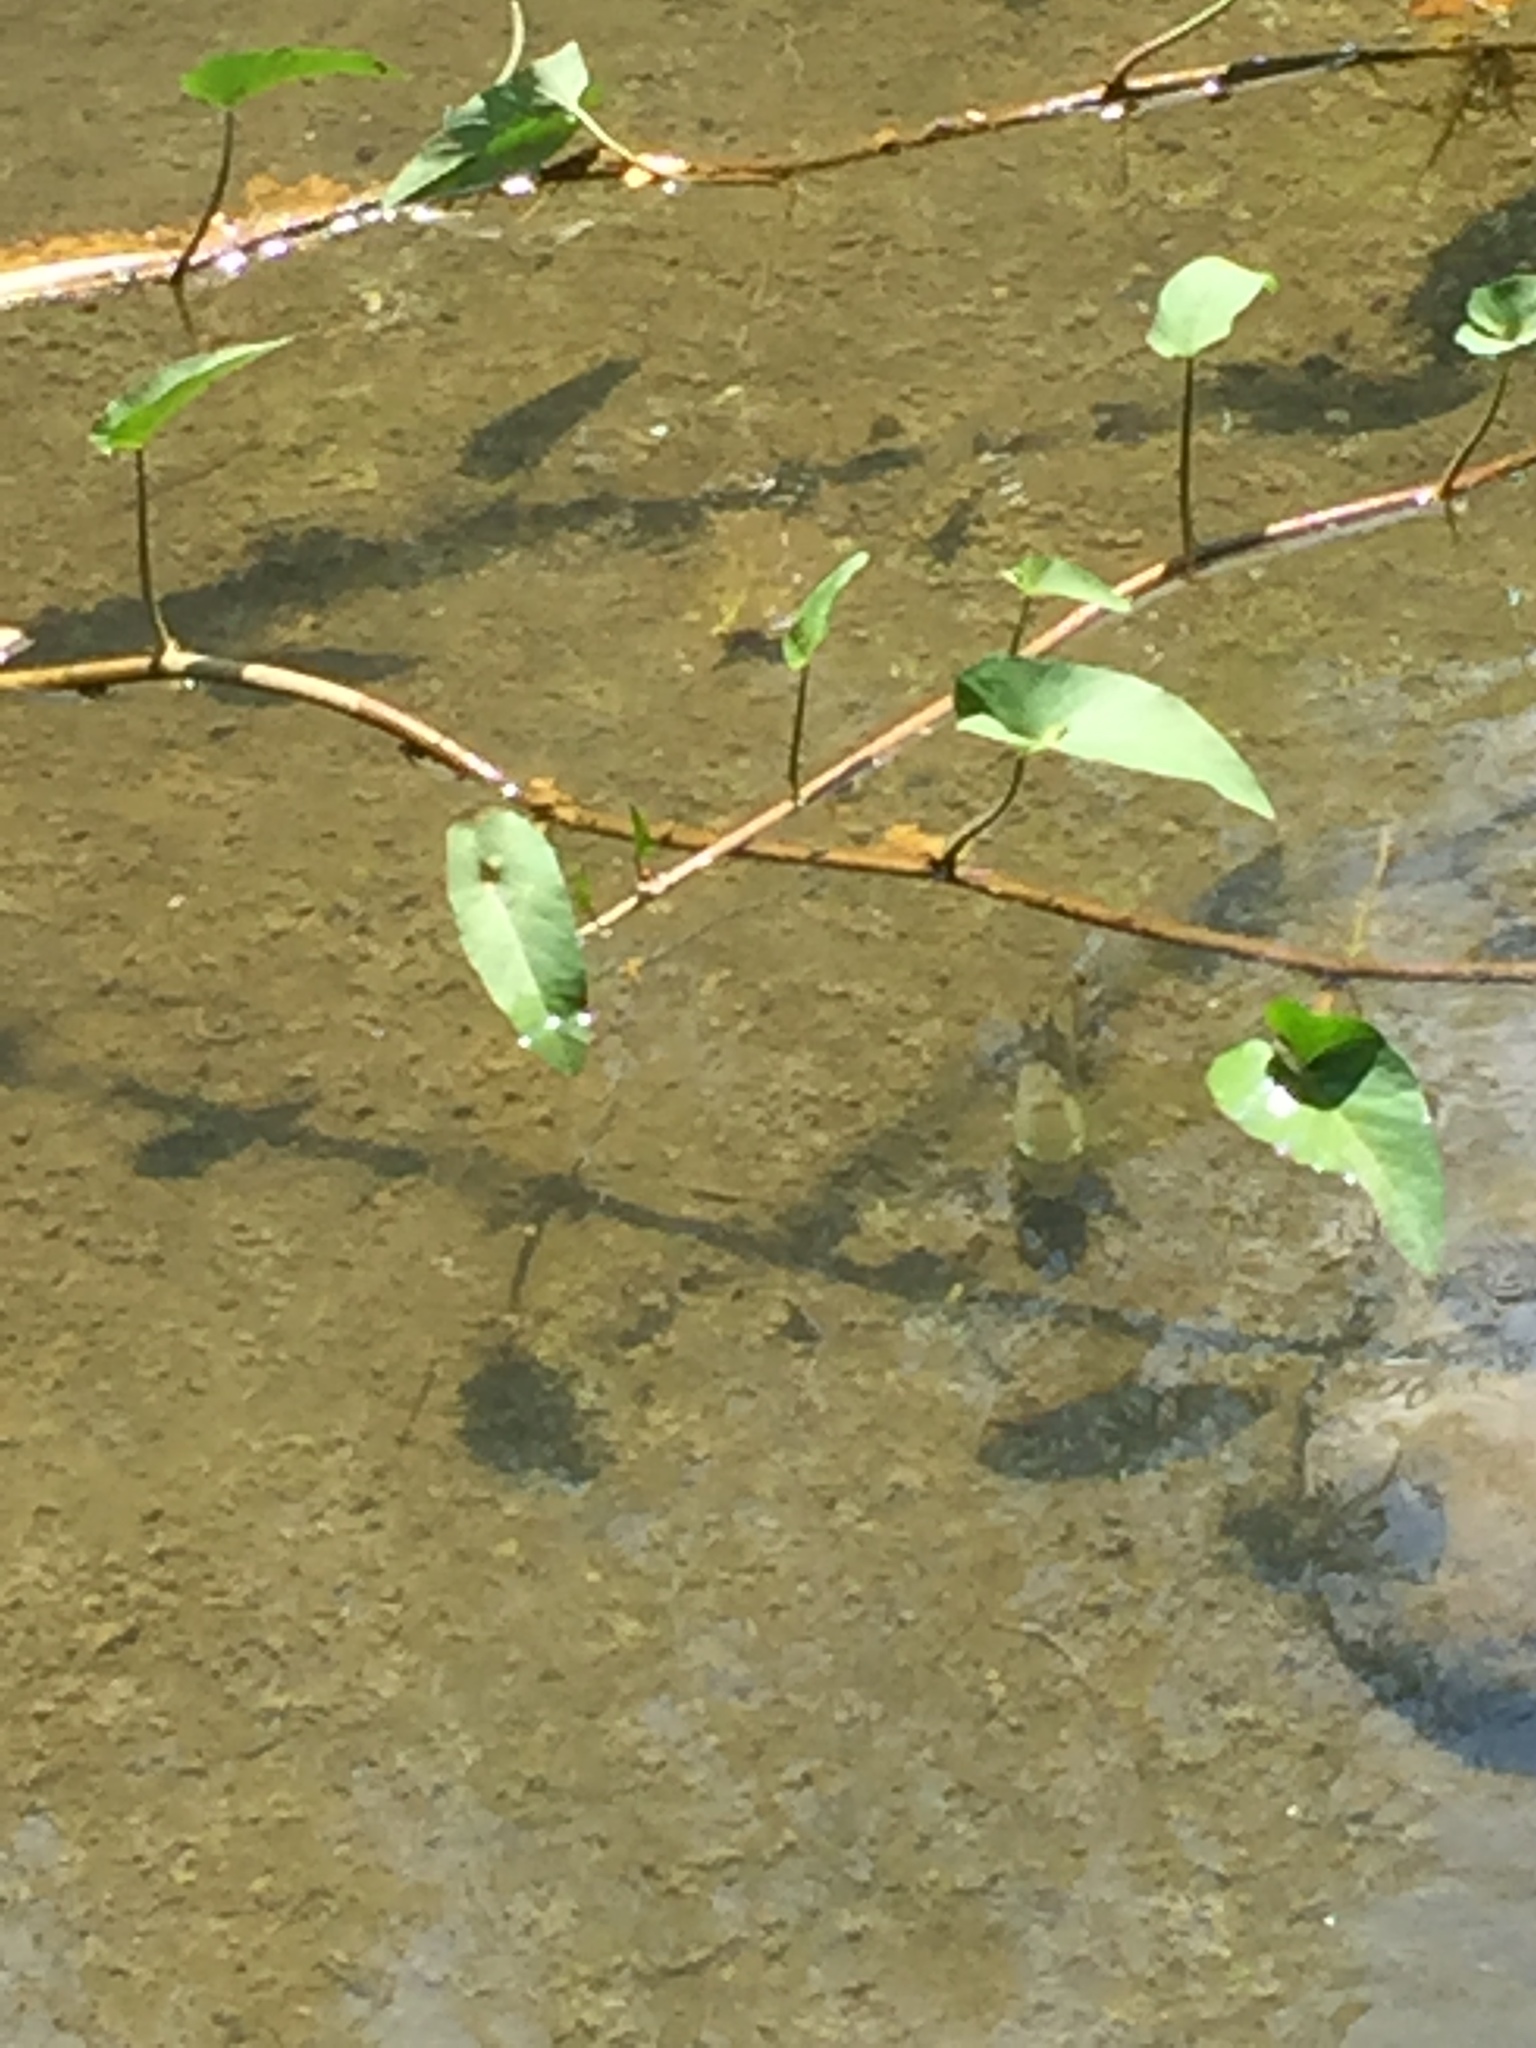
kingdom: Plantae
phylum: Tracheophyta
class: Magnoliopsida
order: Solanales
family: Convolvulaceae
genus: Ipomoea
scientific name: Ipomoea aquatica
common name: Swamp morning-glory
